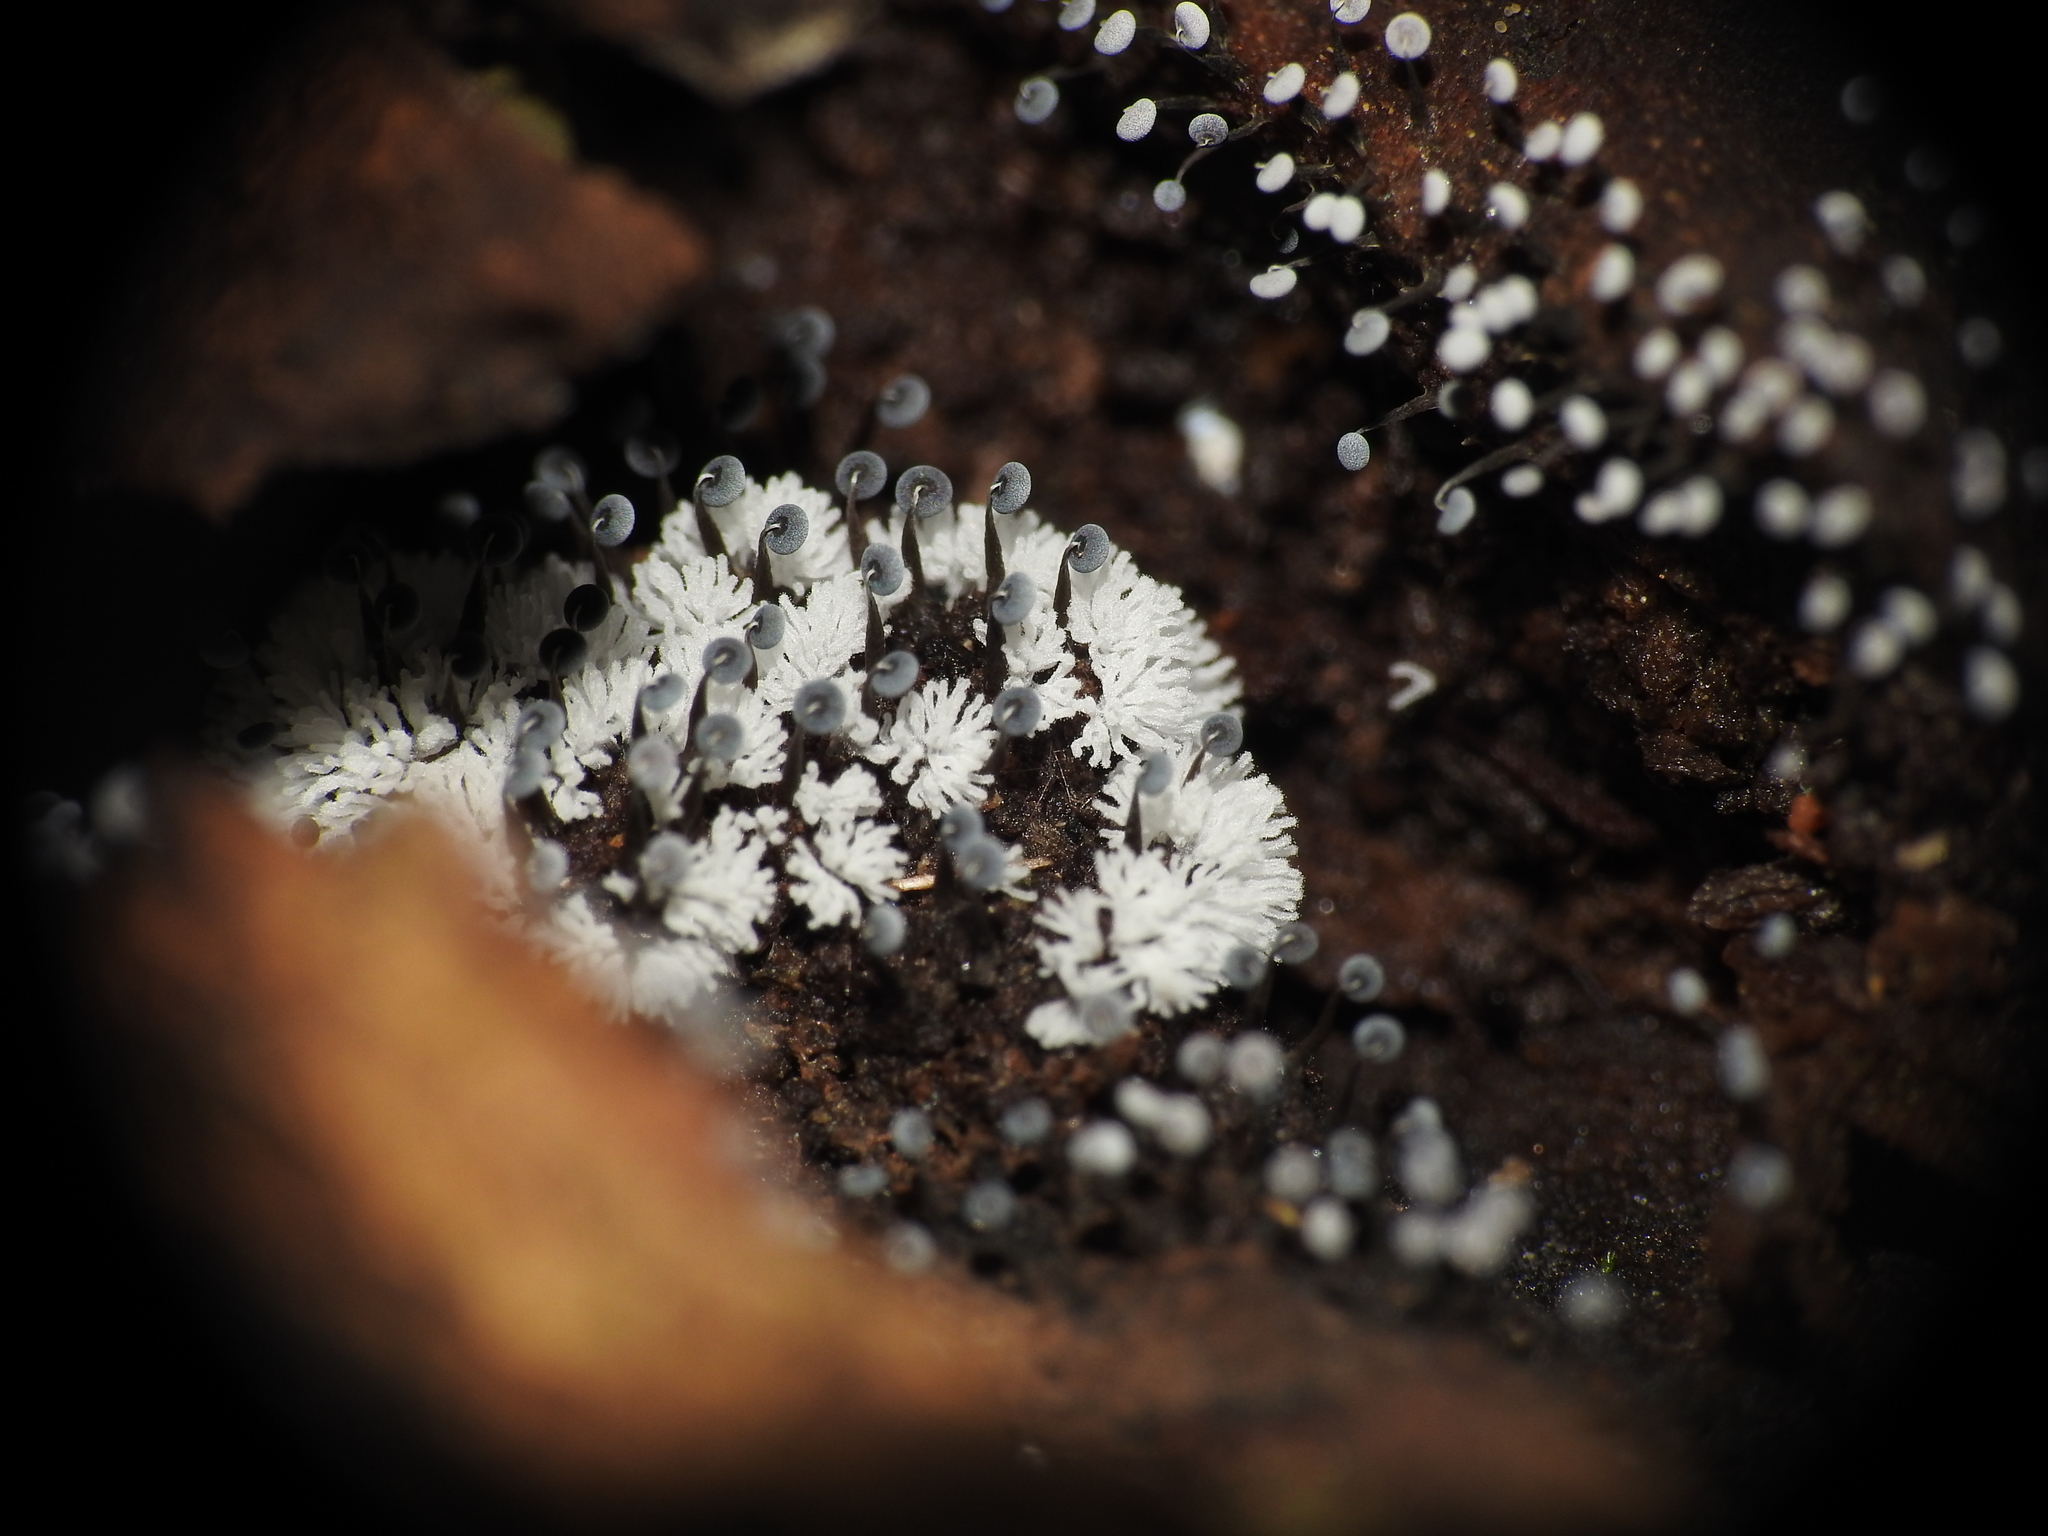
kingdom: Protozoa
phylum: Mycetozoa
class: Protosteliomycetes
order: Ceratiomyxales
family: Ceratiomyxaceae
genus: Ceratiomyxa
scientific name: Ceratiomyxa fruticulosa
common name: Honeycomb coral slime mold
